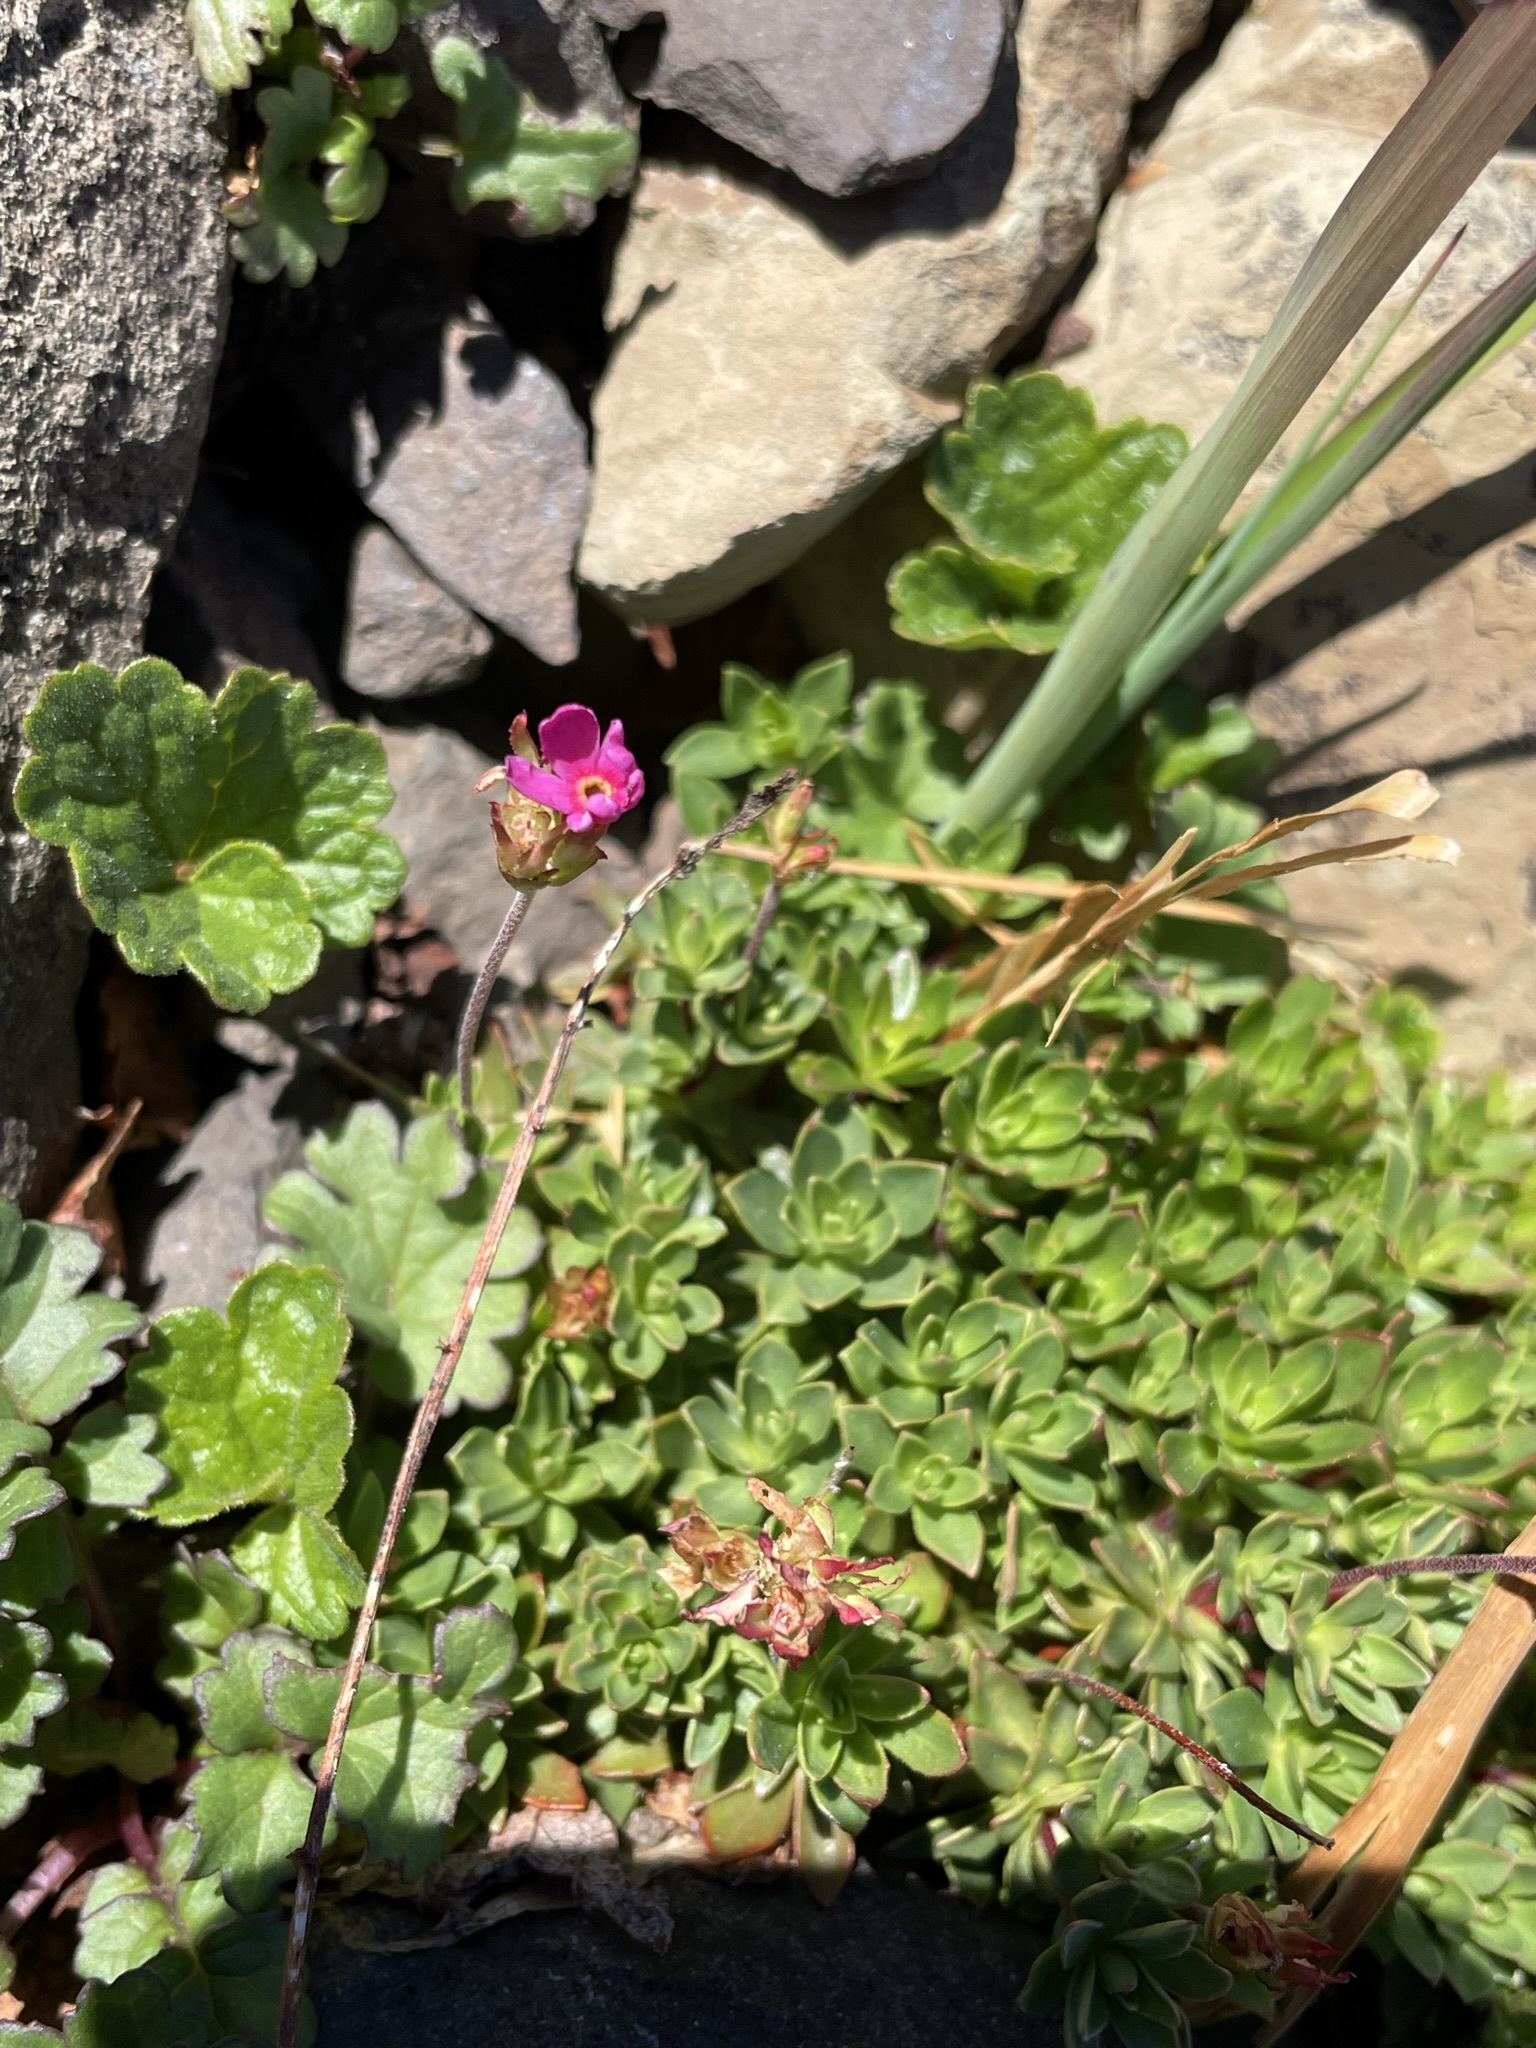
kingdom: Plantae
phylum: Tracheophyta
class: Magnoliopsida
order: Ericales
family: Primulaceae
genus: Androsace
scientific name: Androsace laevigata
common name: Cliff dwarf-primrose
